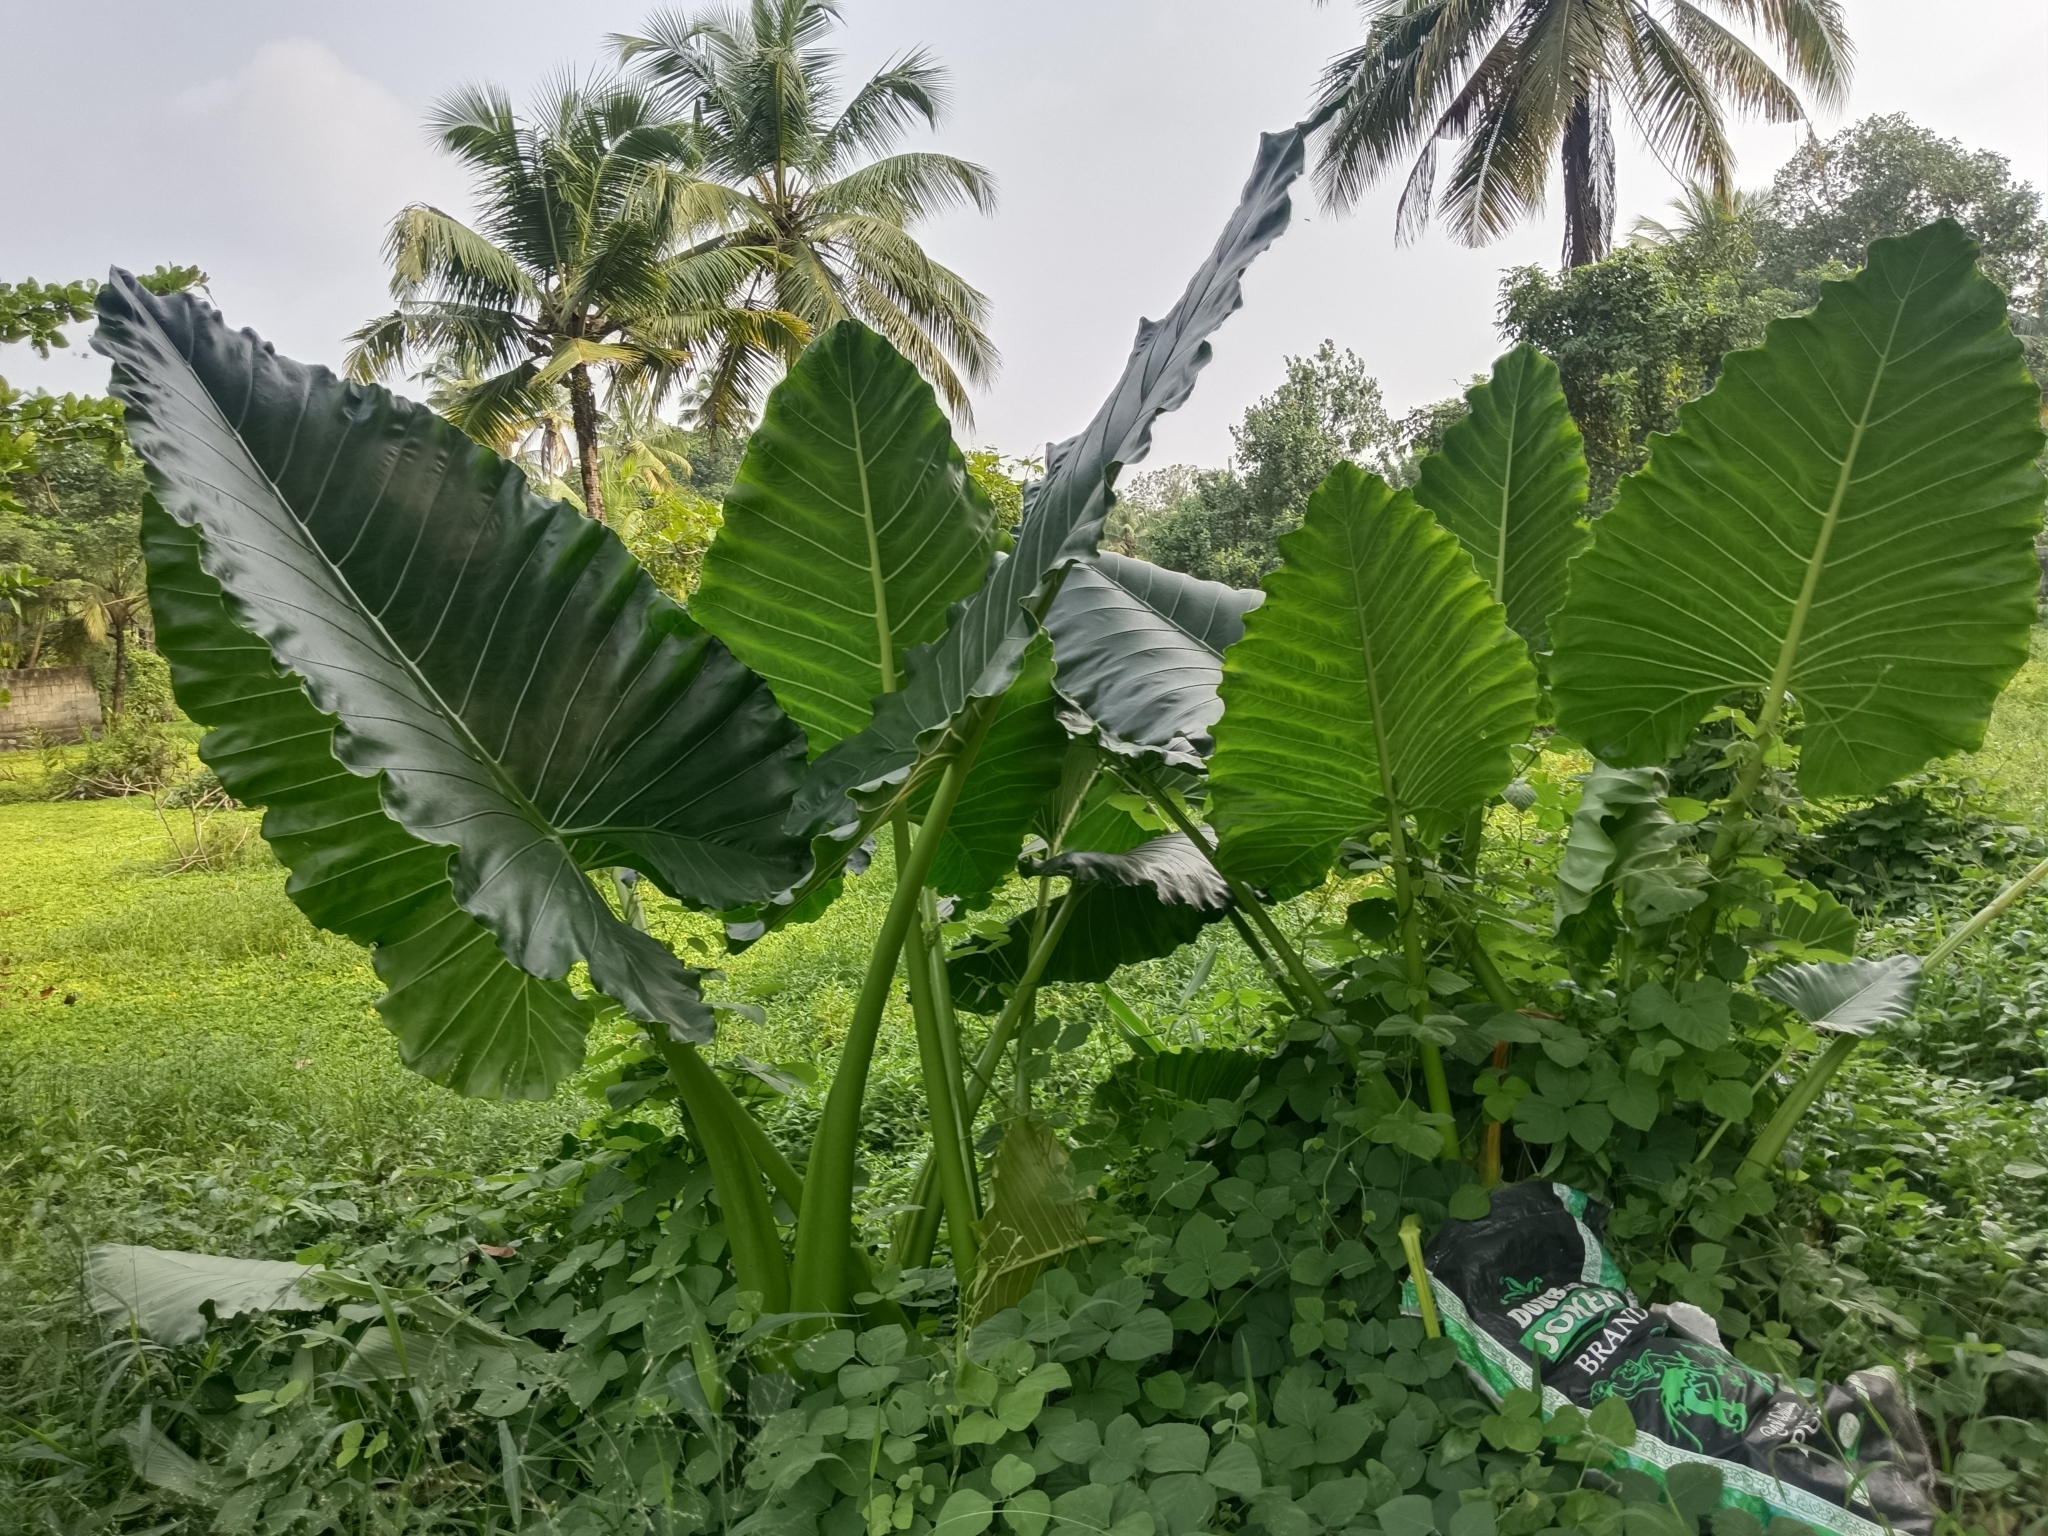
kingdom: Plantae
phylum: Tracheophyta
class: Liliopsida
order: Alismatales
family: Araceae
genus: Alocasia
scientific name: Alocasia macrorrhizos
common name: Giant taro
